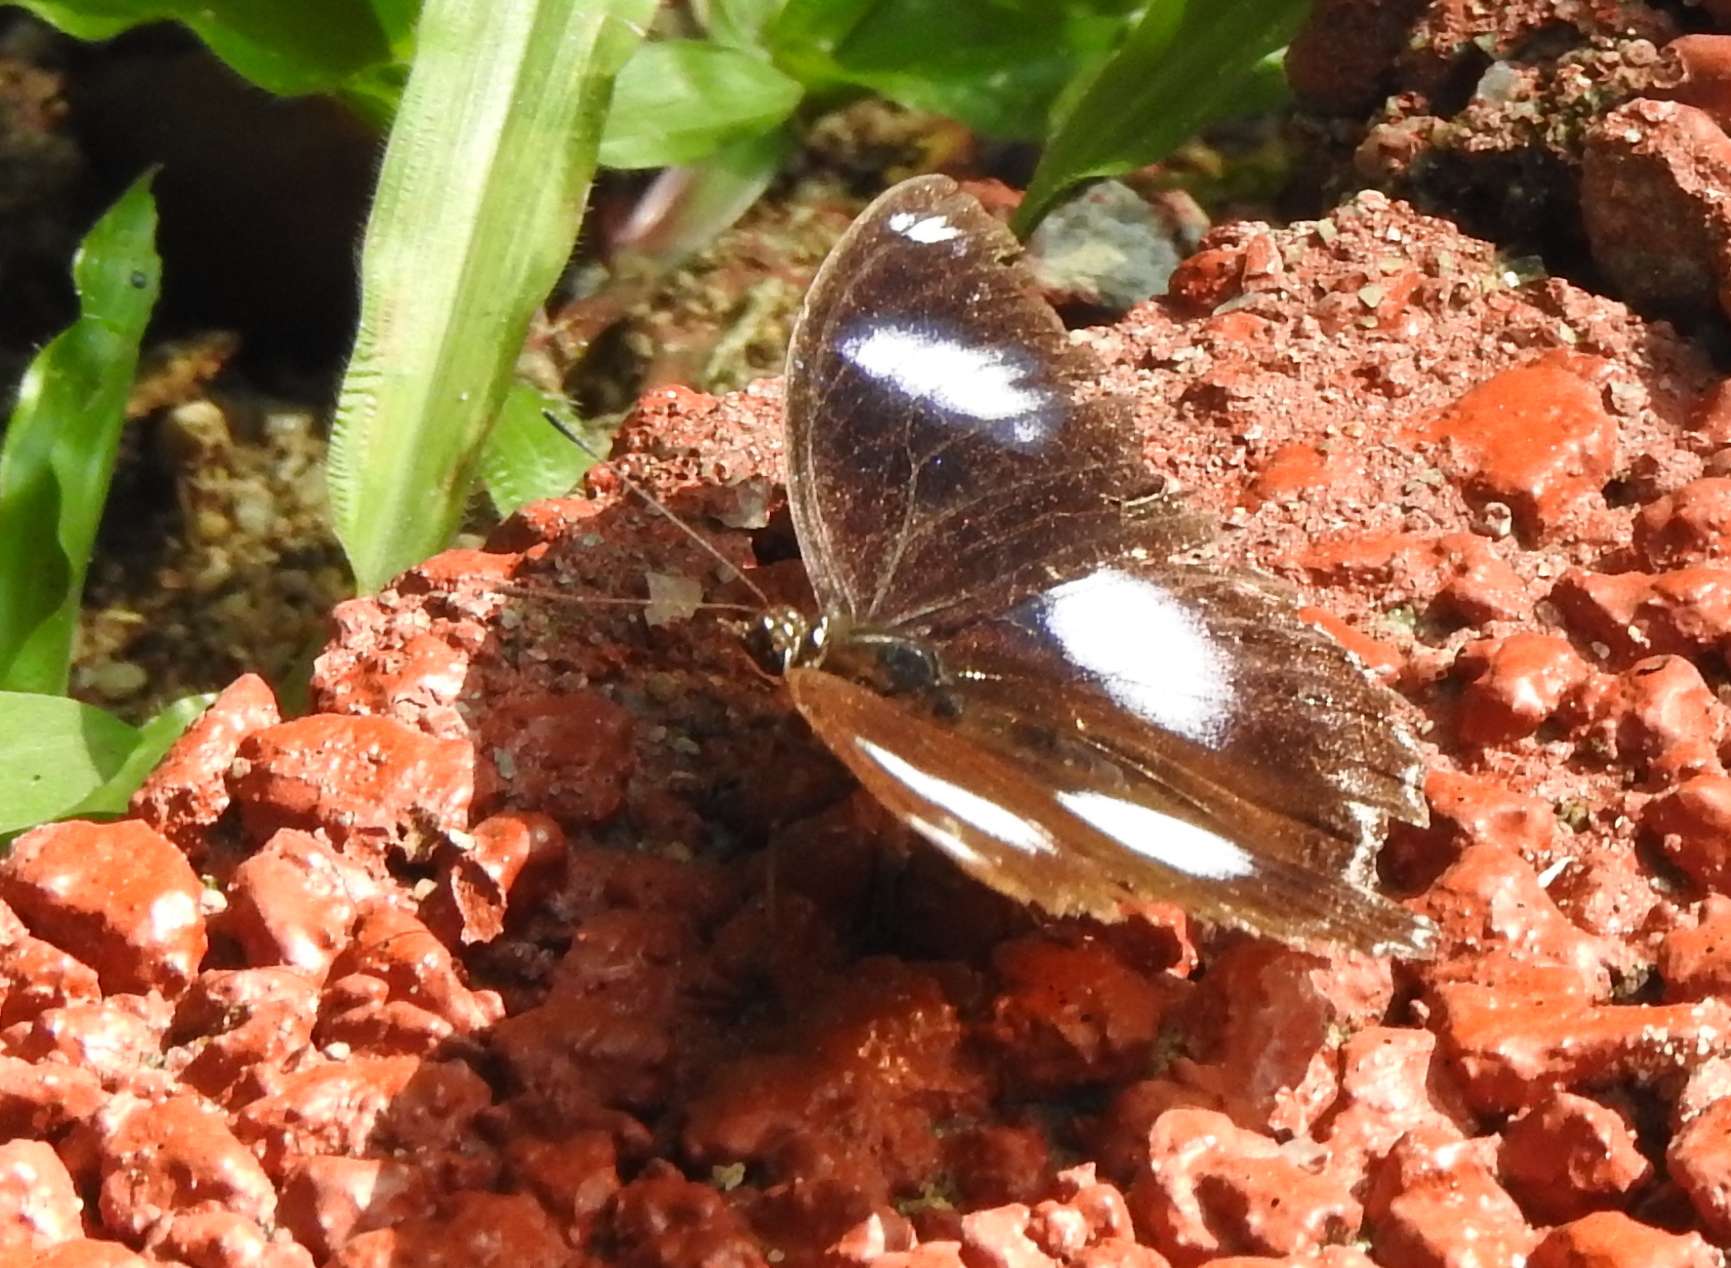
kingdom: Animalia
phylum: Arthropoda
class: Insecta
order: Lepidoptera
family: Nymphalidae
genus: Hypolimnas
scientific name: Hypolimnas bolina
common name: Great eggfly
